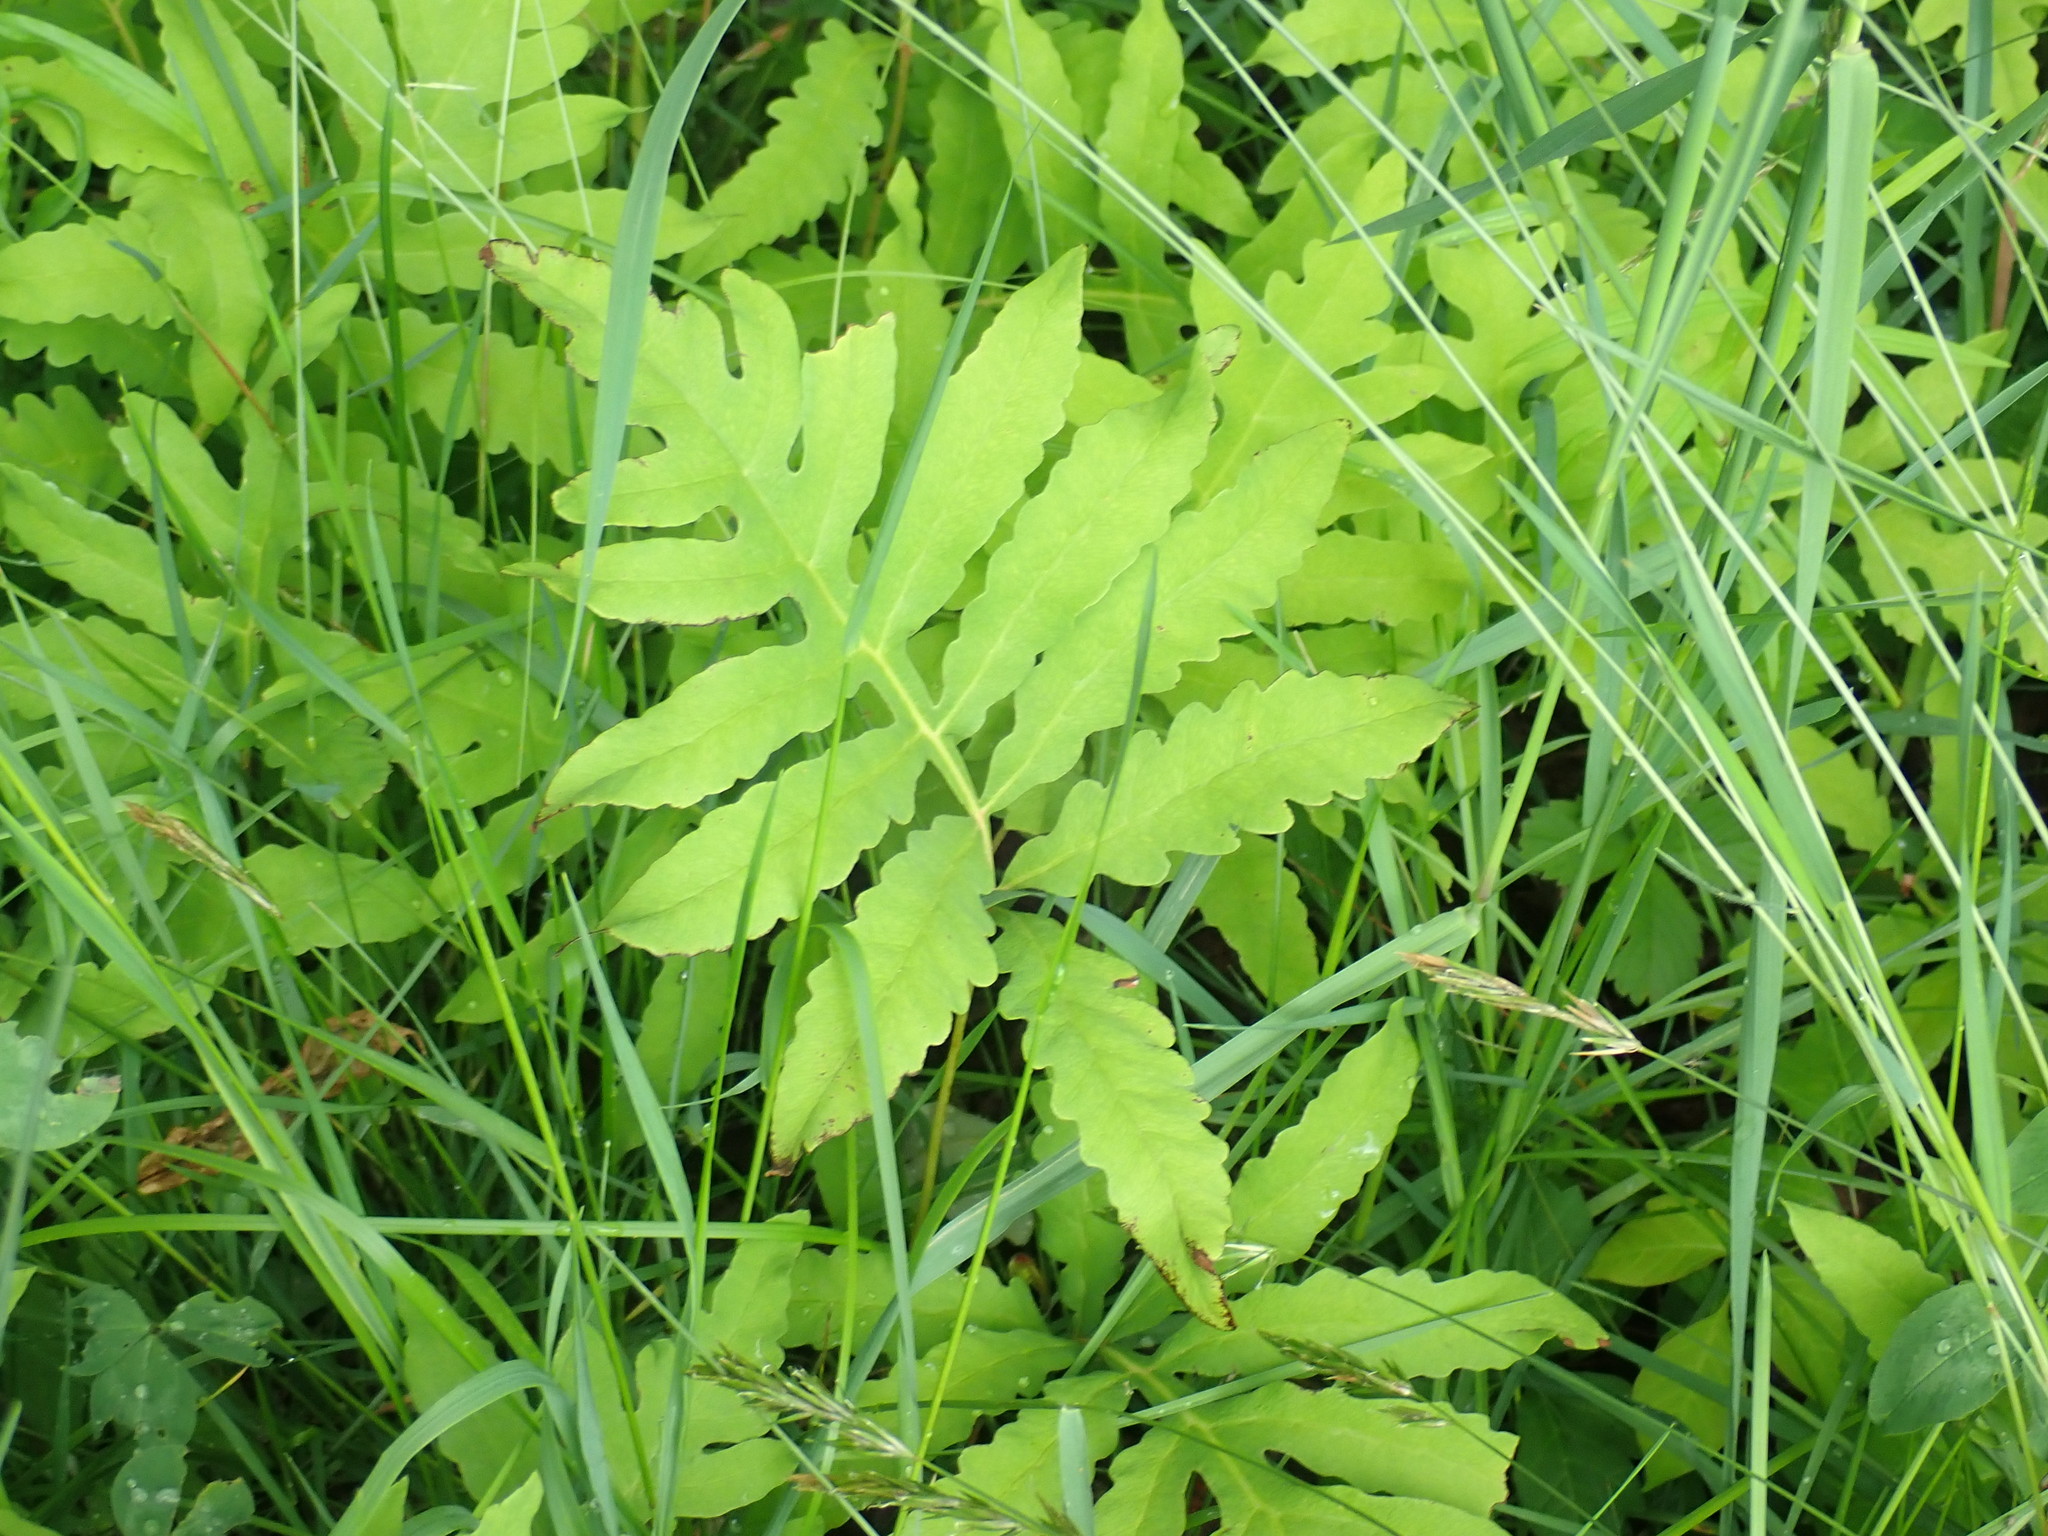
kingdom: Plantae
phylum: Tracheophyta
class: Polypodiopsida
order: Polypodiales
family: Onocleaceae
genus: Onoclea
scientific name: Onoclea sensibilis
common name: Sensitive fern
